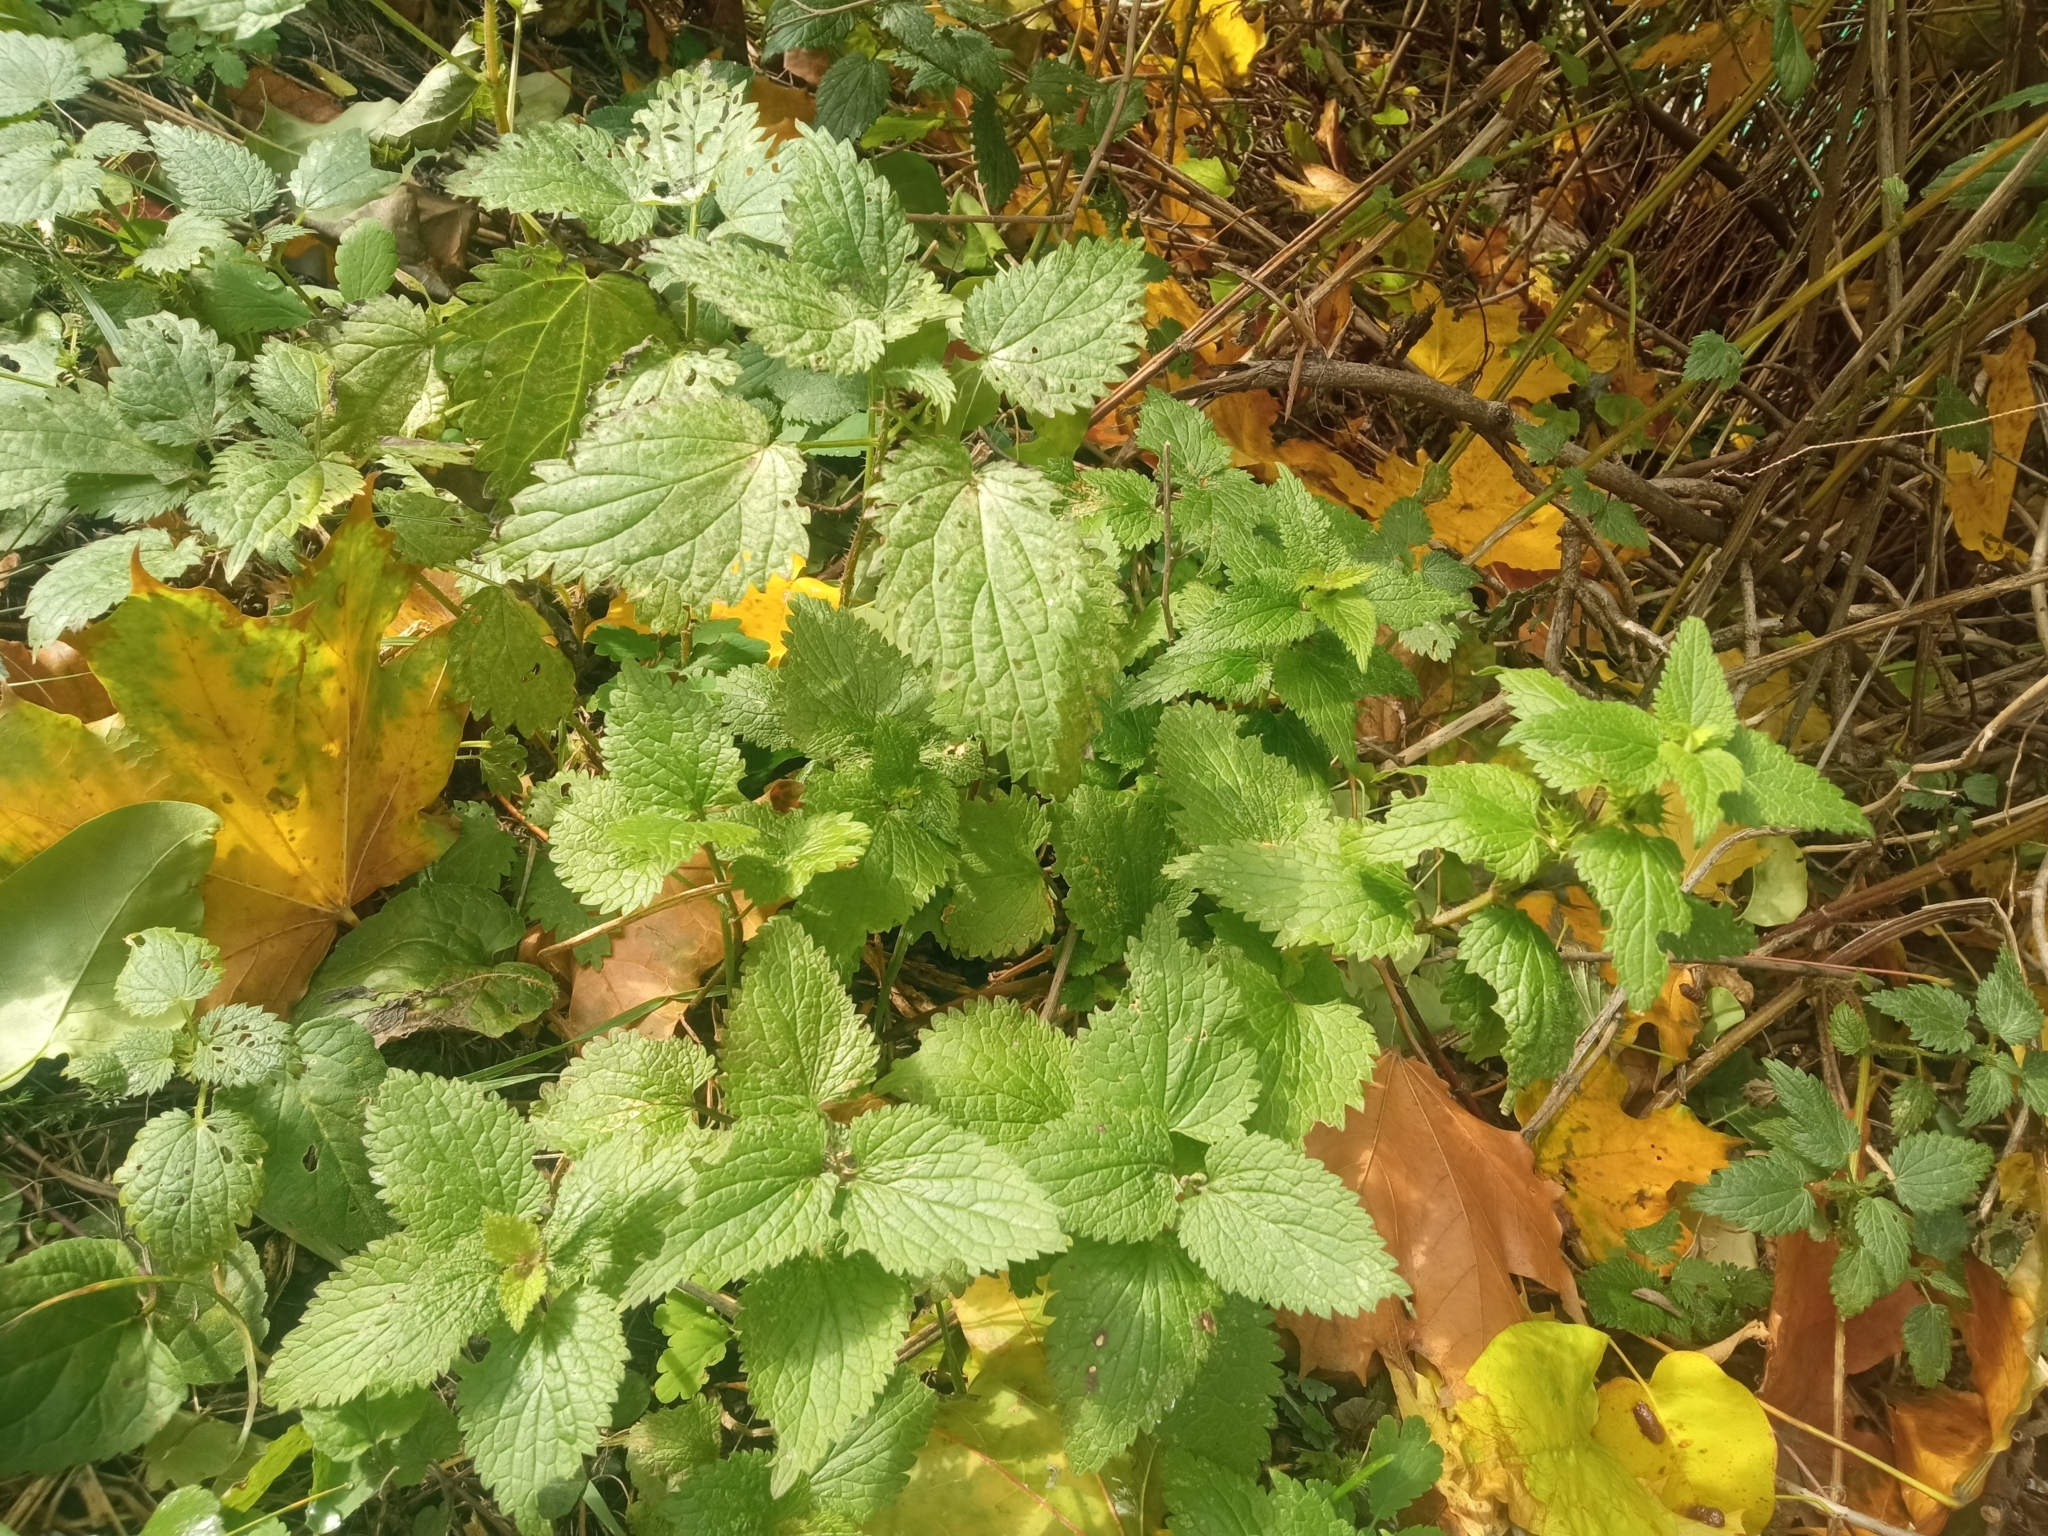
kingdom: Plantae
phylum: Tracheophyta
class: Magnoliopsida
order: Rosales
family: Urticaceae
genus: Urtica
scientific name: Urtica dioica
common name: Common nettle
